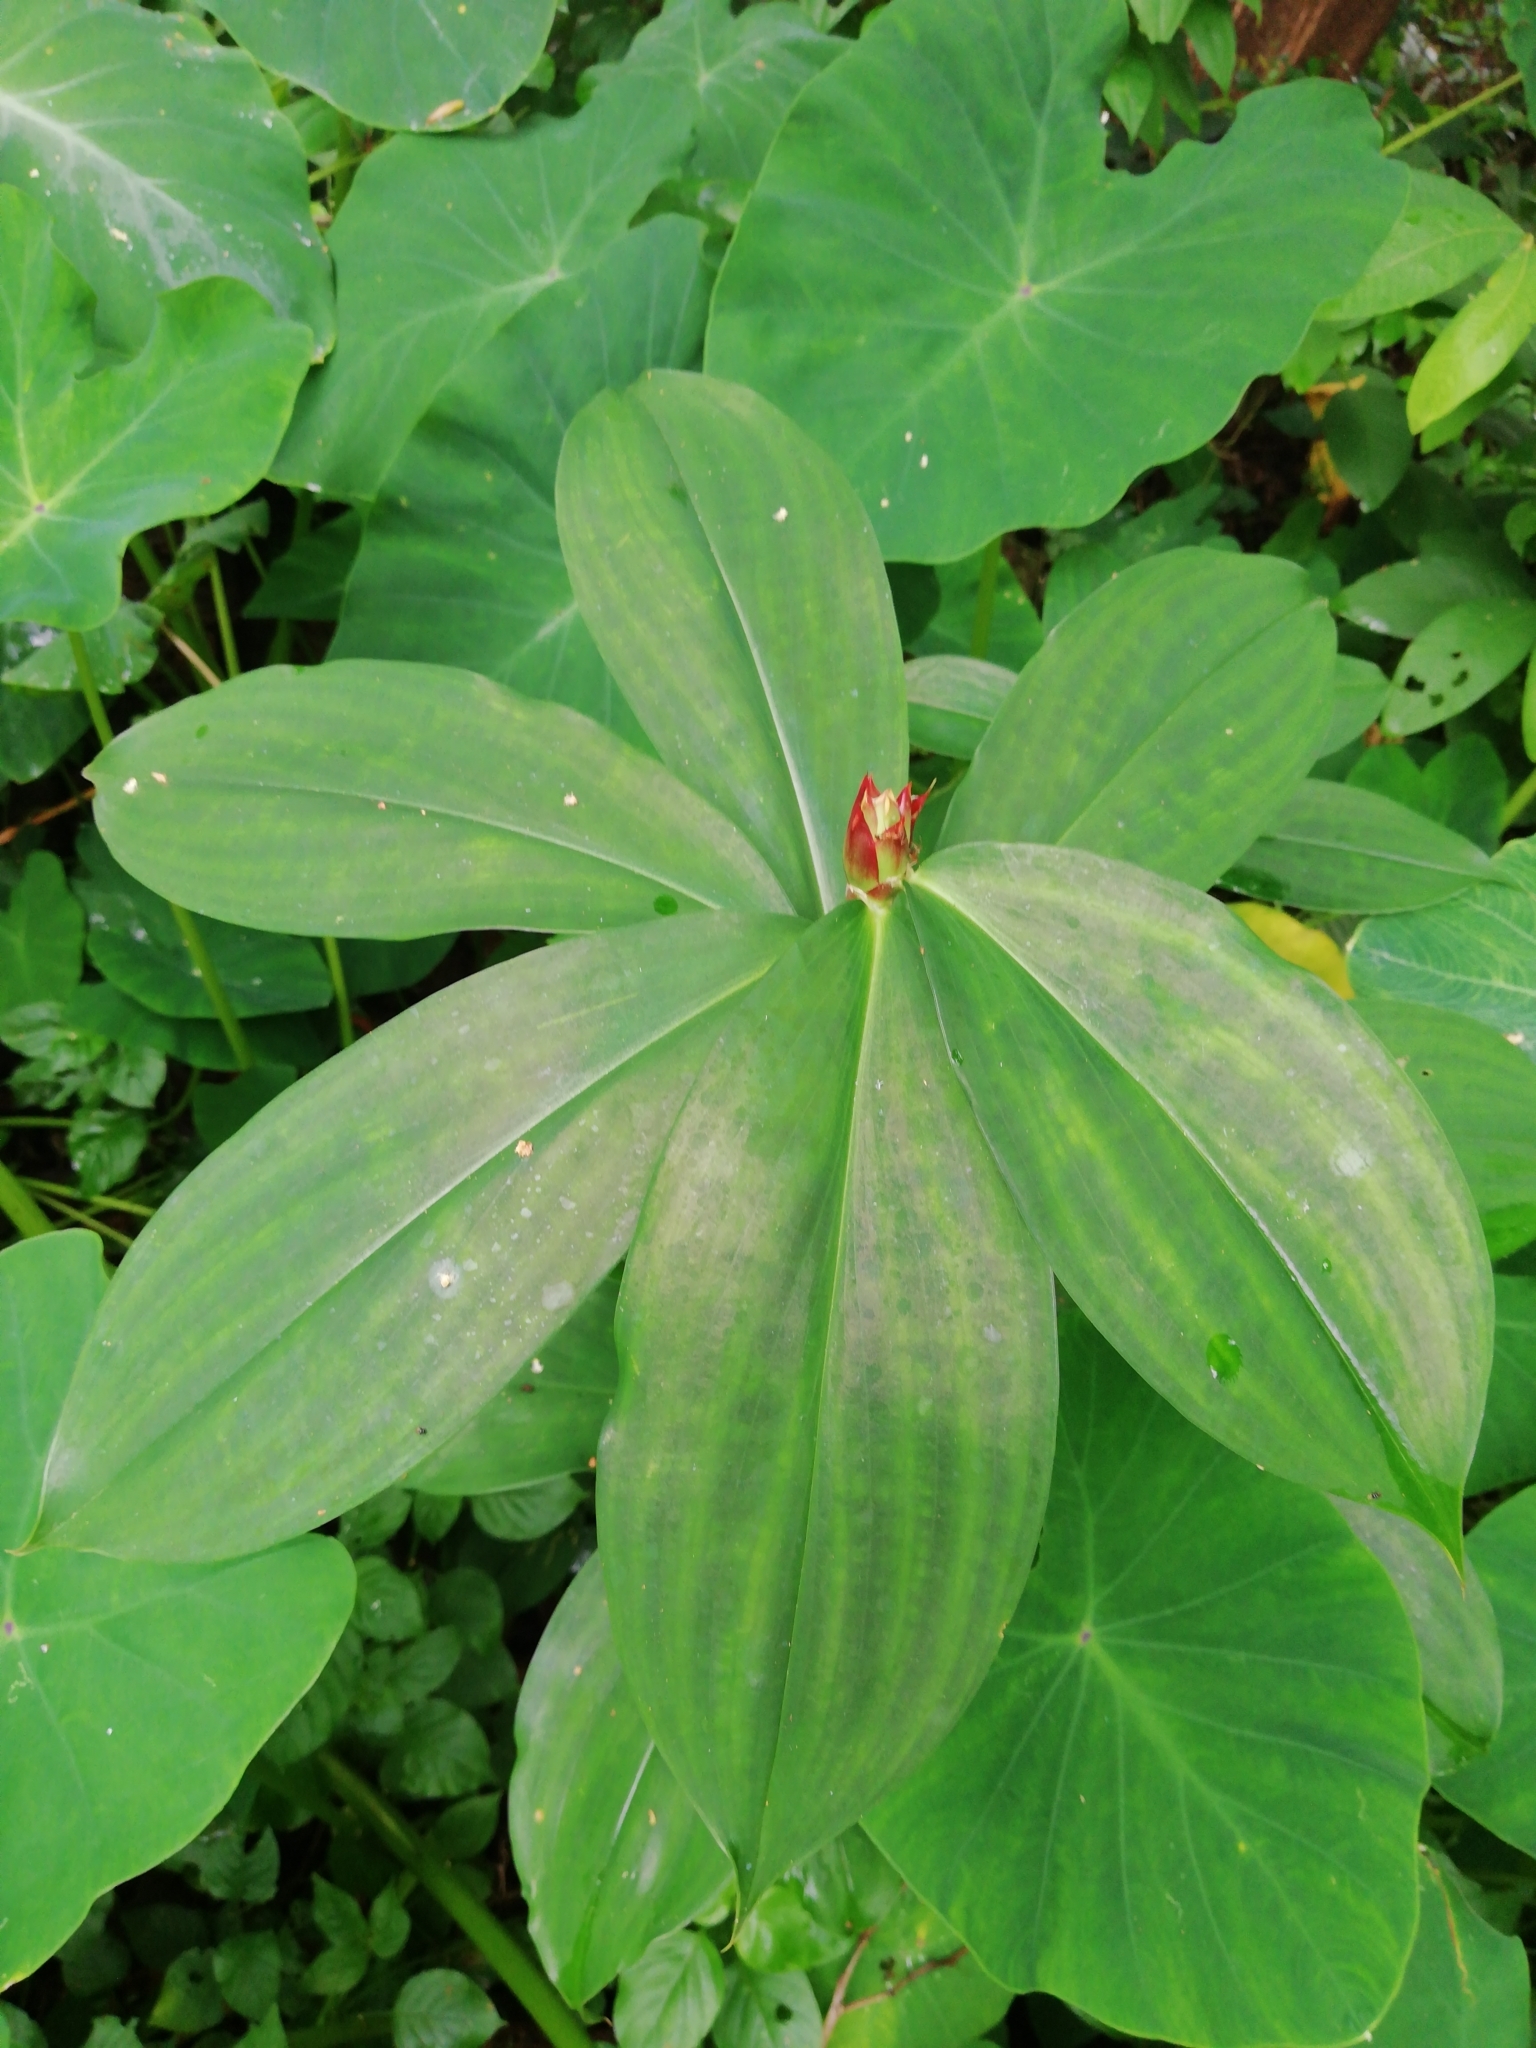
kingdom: Plantae
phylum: Tracheophyta
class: Liliopsida
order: Zingiberales
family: Costaceae
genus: Hellenia
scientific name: Hellenia speciosa
